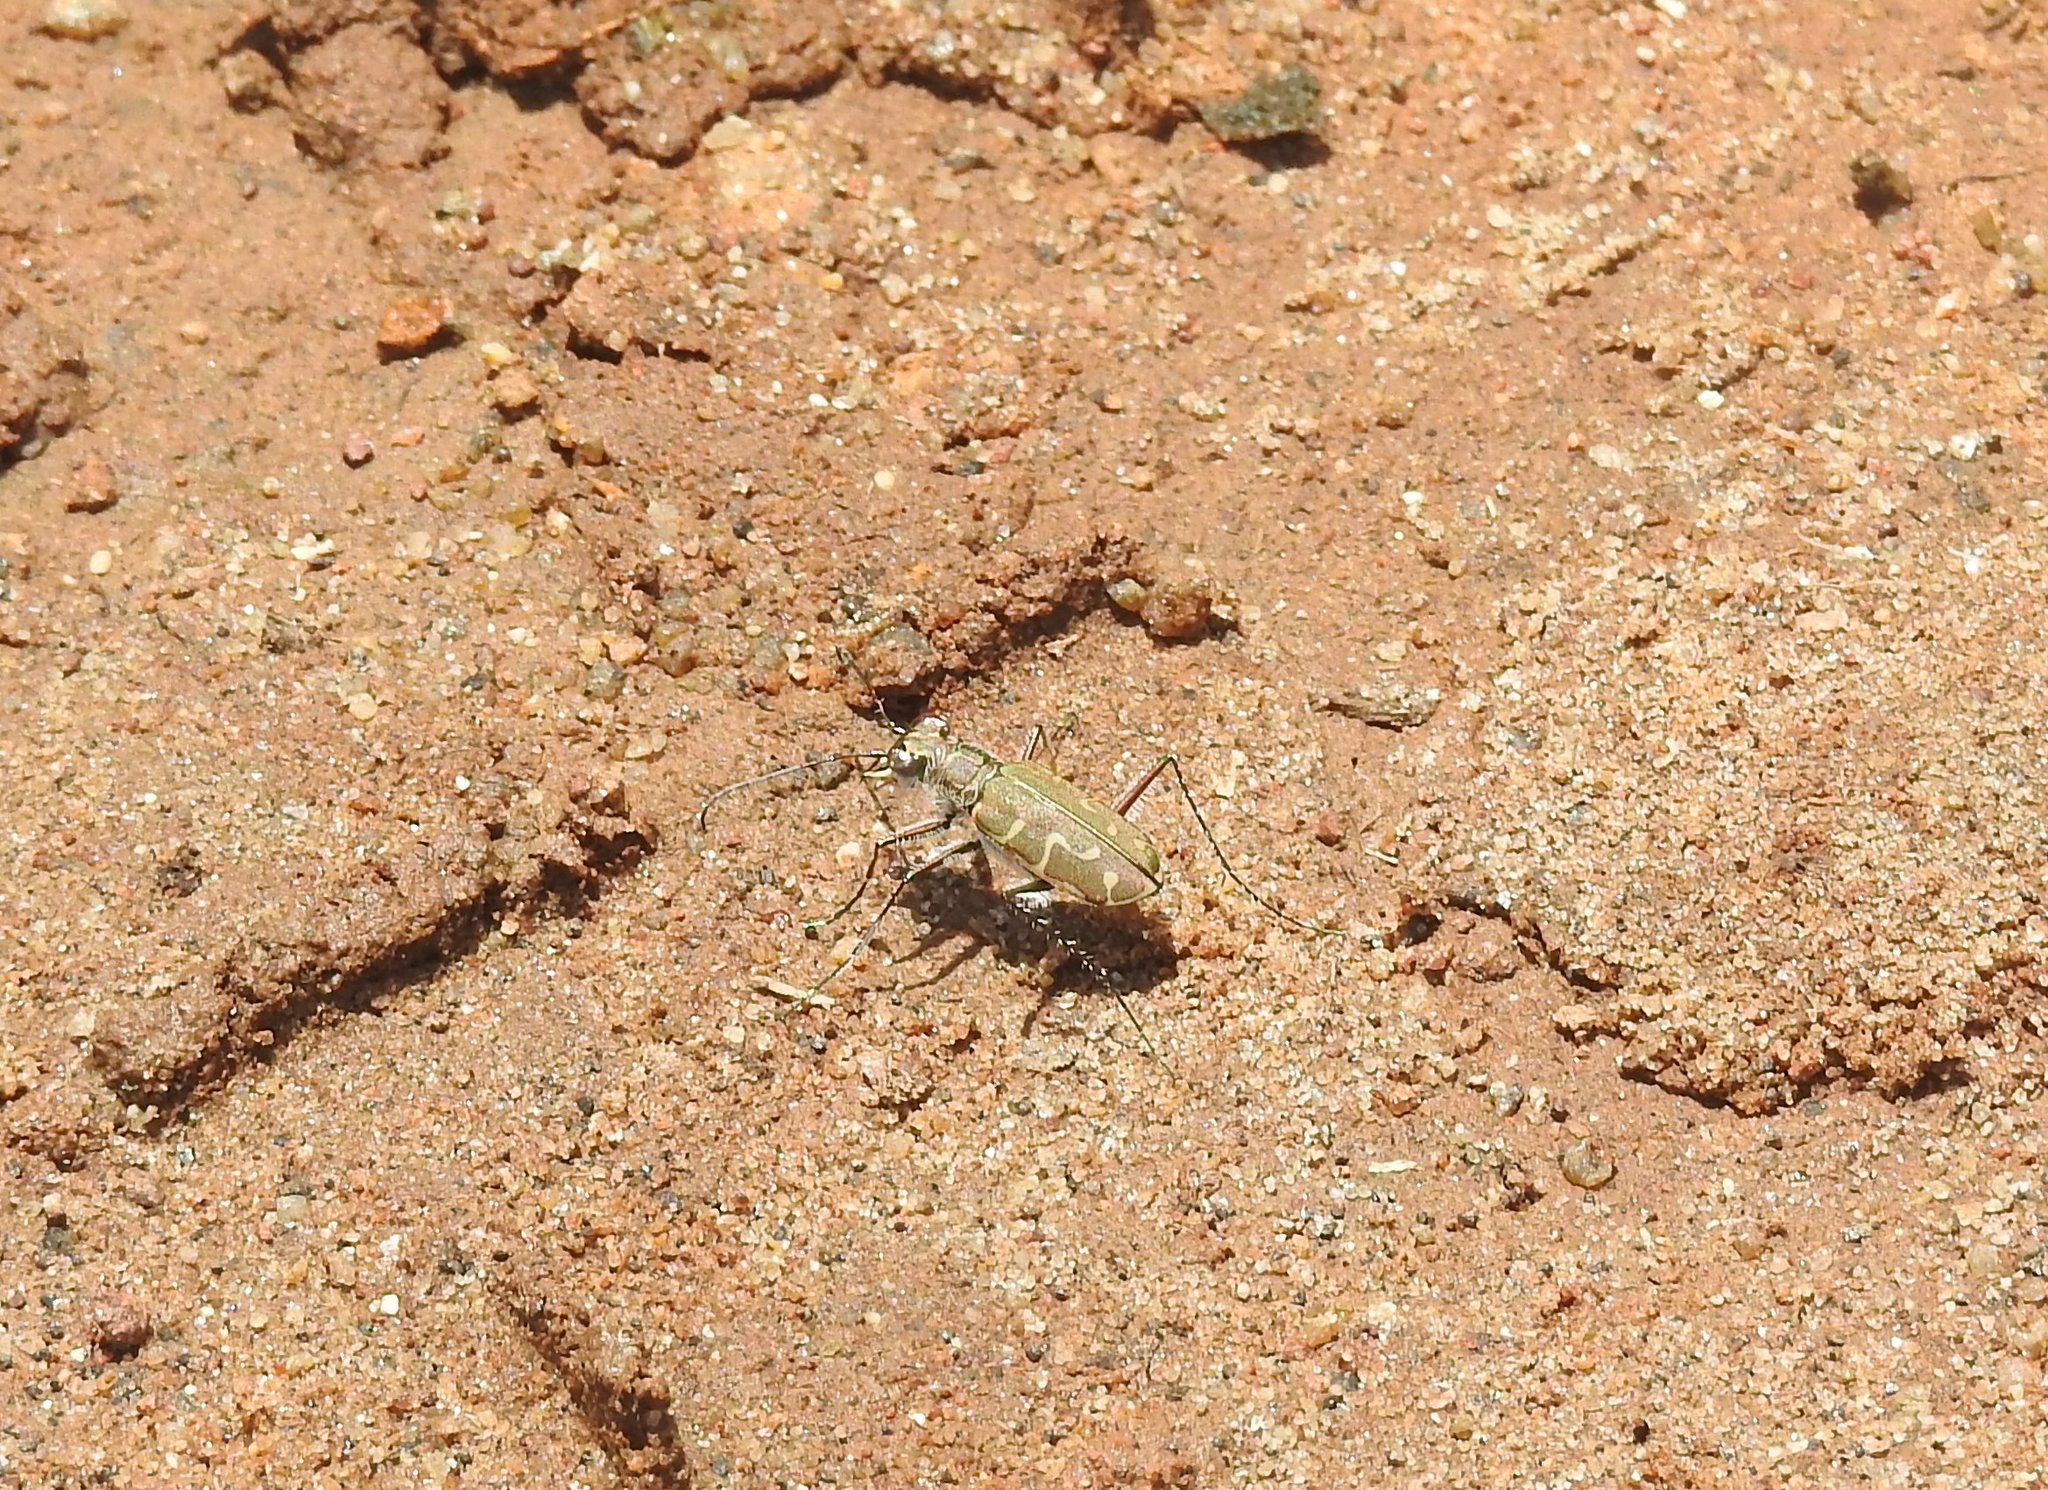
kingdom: Animalia
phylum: Arthropoda
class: Insecta
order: Coleoptera
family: Carabidae
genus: Cicindela
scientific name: Cicindela angulata
